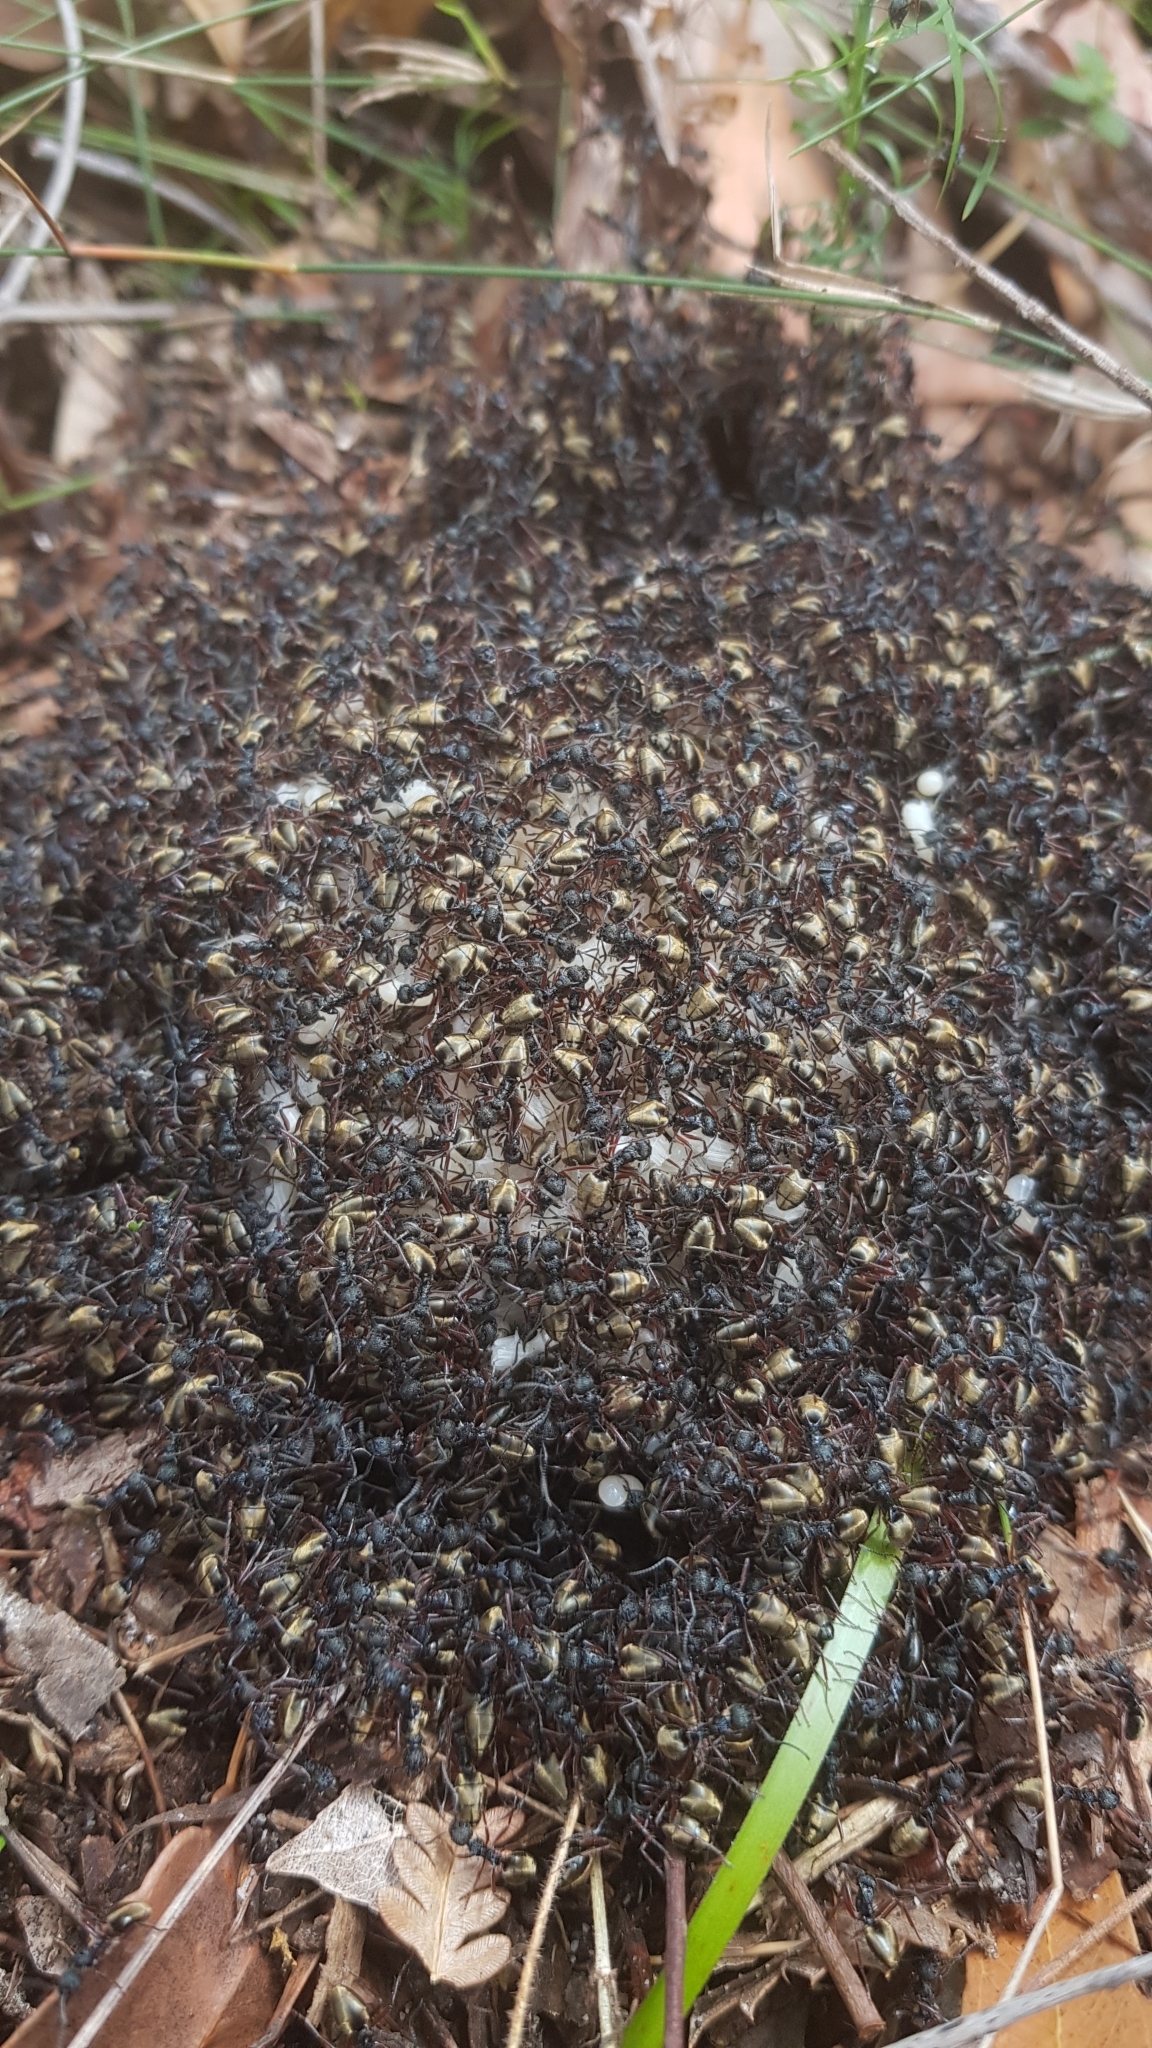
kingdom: Animalia
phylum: Arthropoda
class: Insecta
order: Hymenoptera
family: Formicidae
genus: Dolichoderus
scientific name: Dolichoderus doriae
